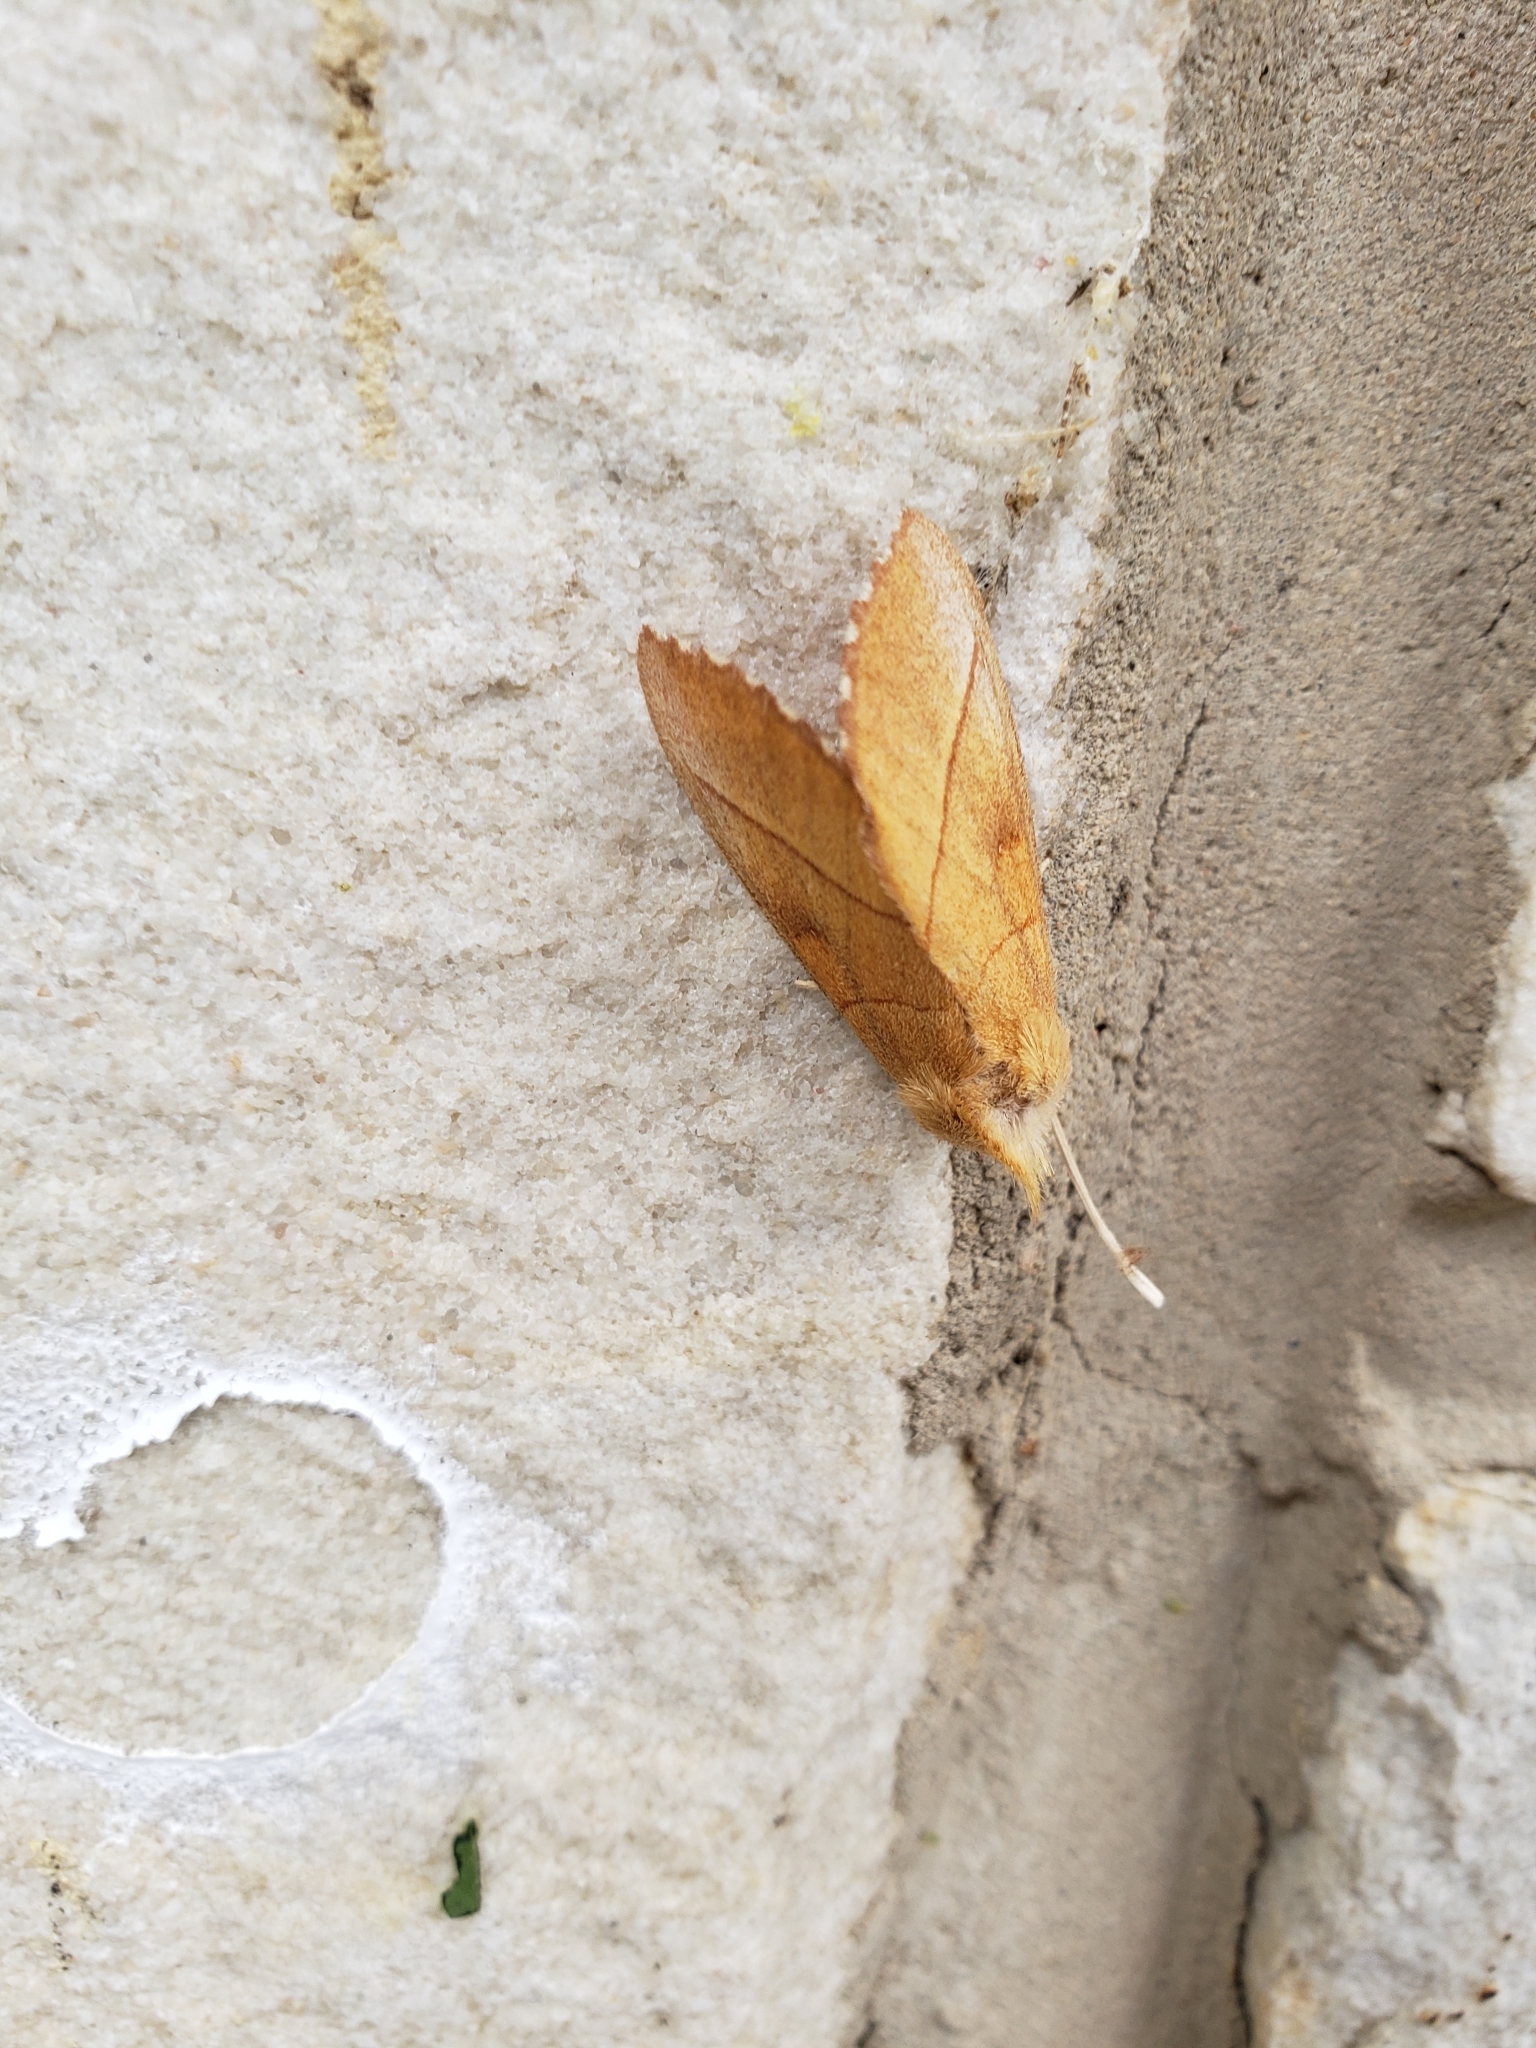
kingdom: Animalia
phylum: Arthropoda
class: Insecta
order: Lepidoptera
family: Notodontidae
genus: Nadata
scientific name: Nadata gibbosa
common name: White-dotted prominent
